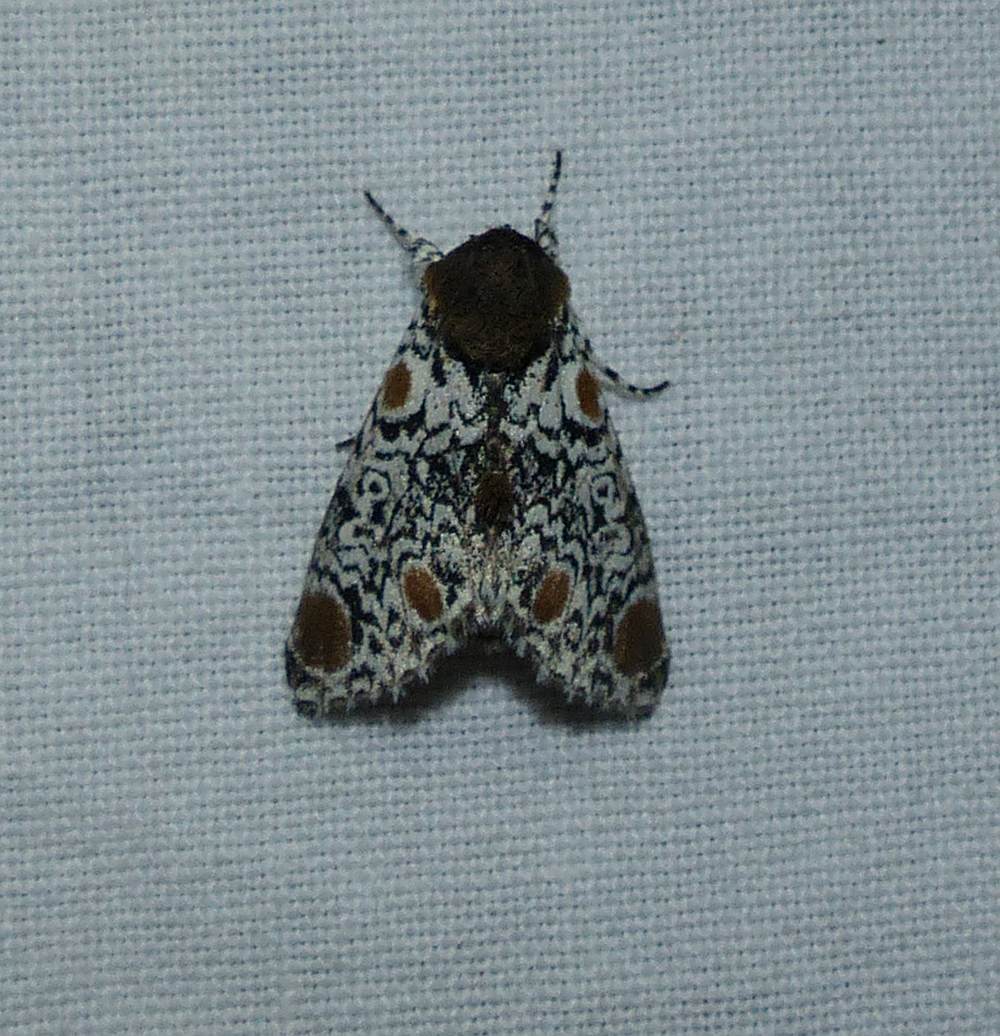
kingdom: Animalia
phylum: Arthropoda
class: Insecta
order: Lepidoptera
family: Noctuidae
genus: Harrisimemna
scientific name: Harrisimemna trisignata
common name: Harris threespot
